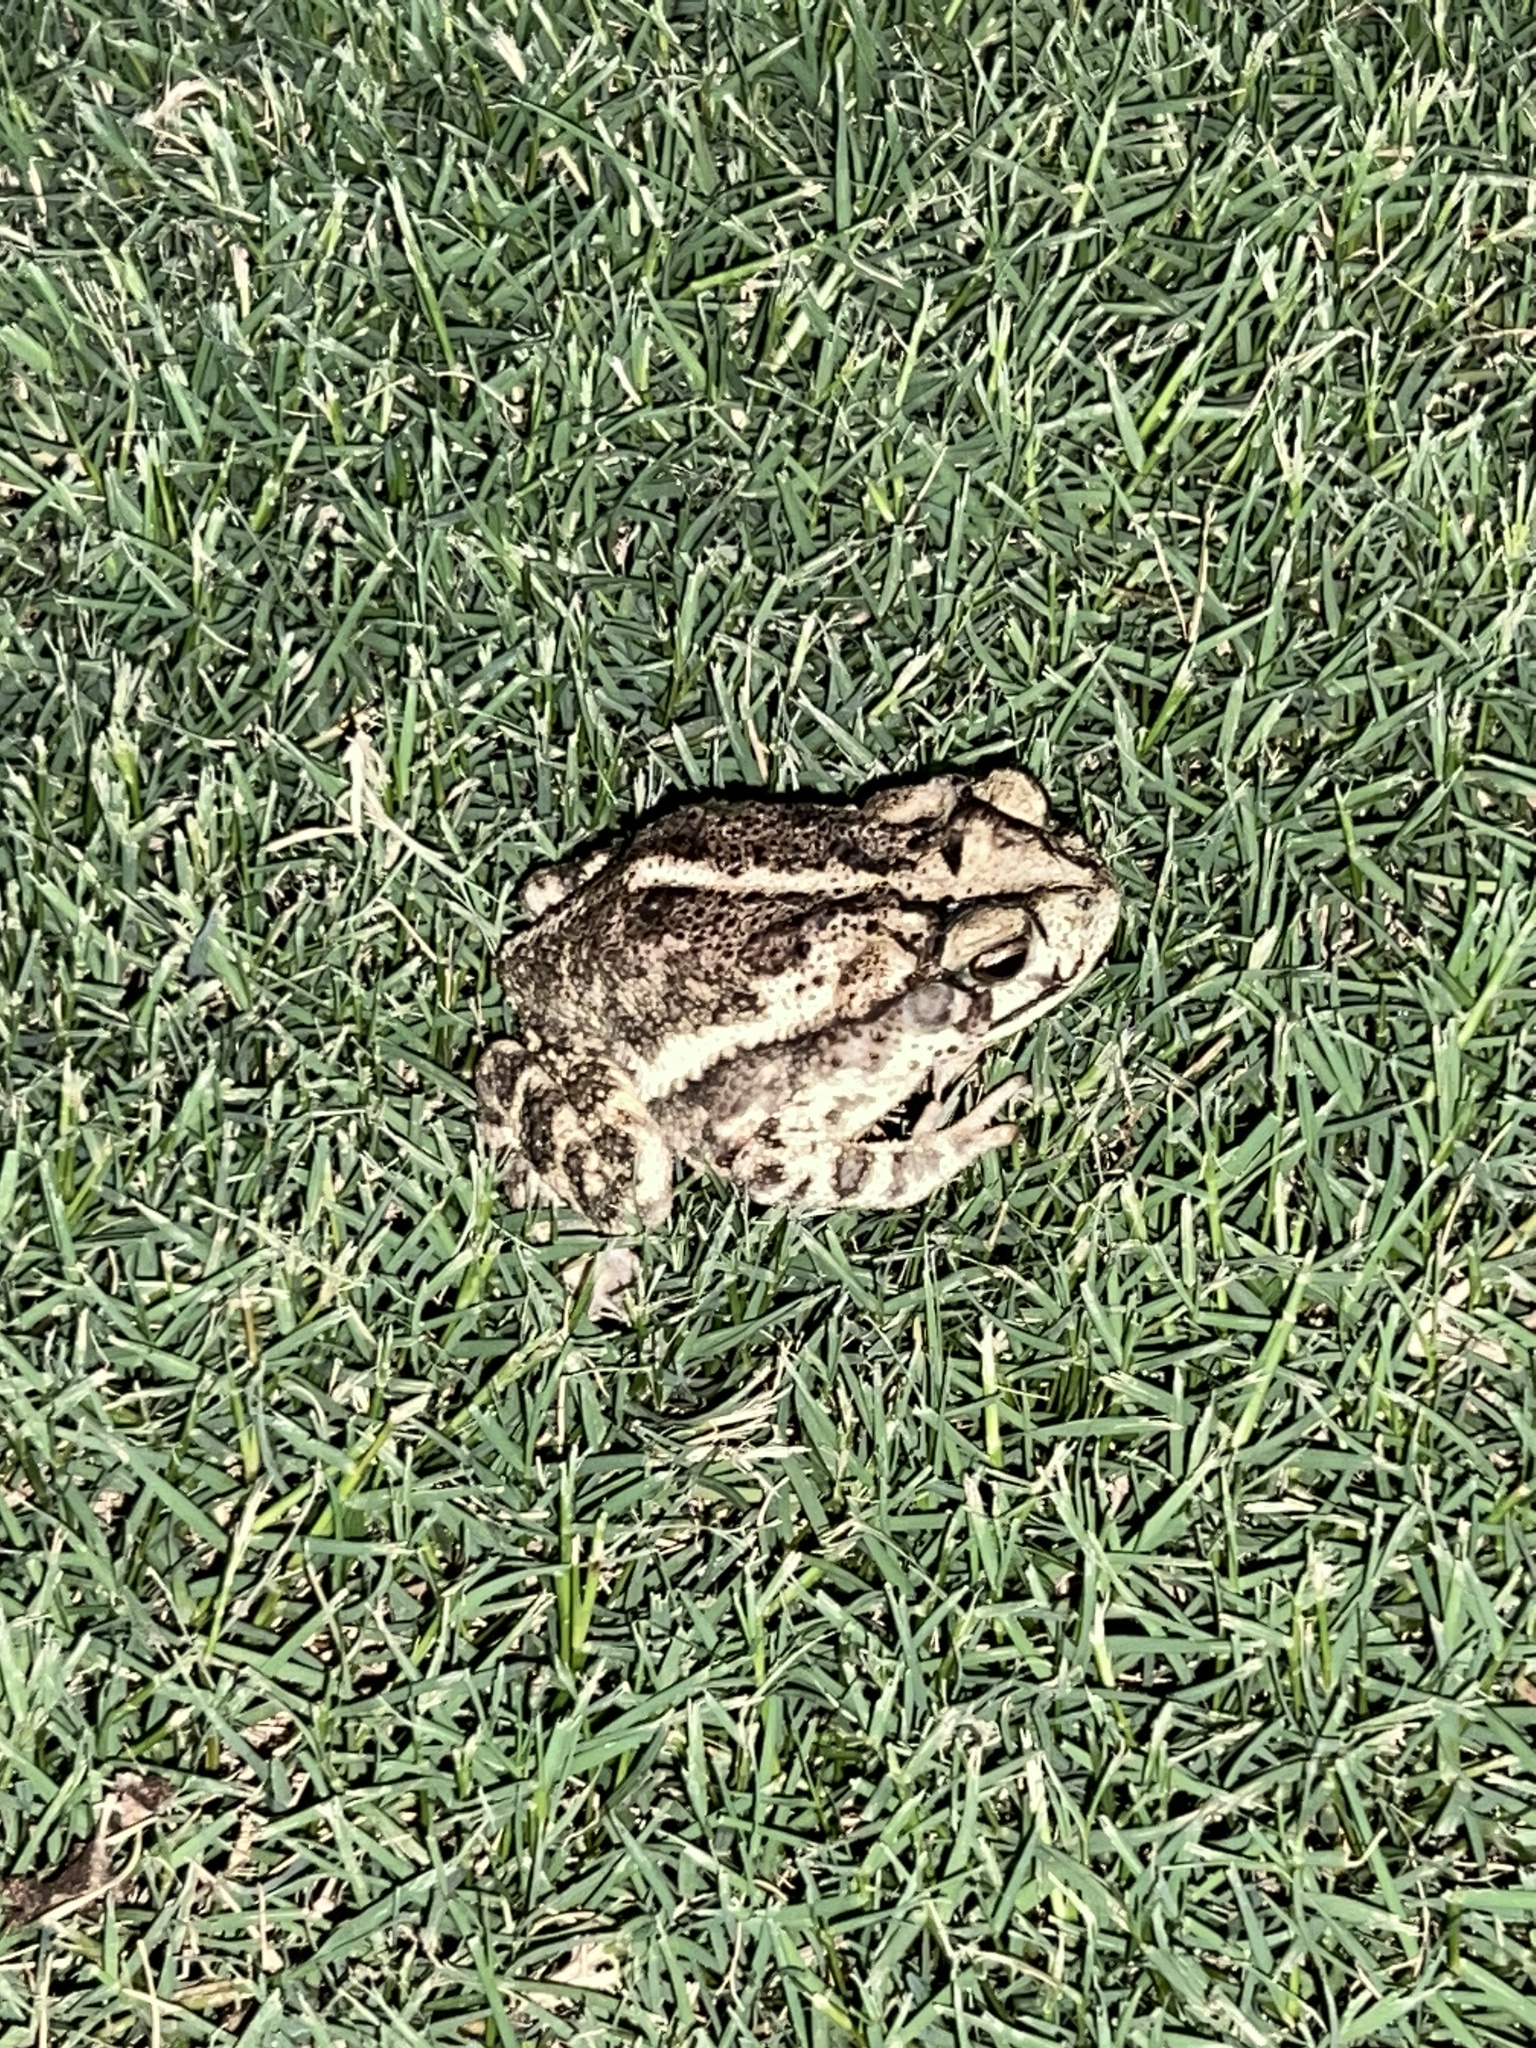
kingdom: Animalia
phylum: Chordata
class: Amphibia
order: Anura
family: Bufonidae
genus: Incilius
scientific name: Incilius nebulifer
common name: Gulf coast toad
